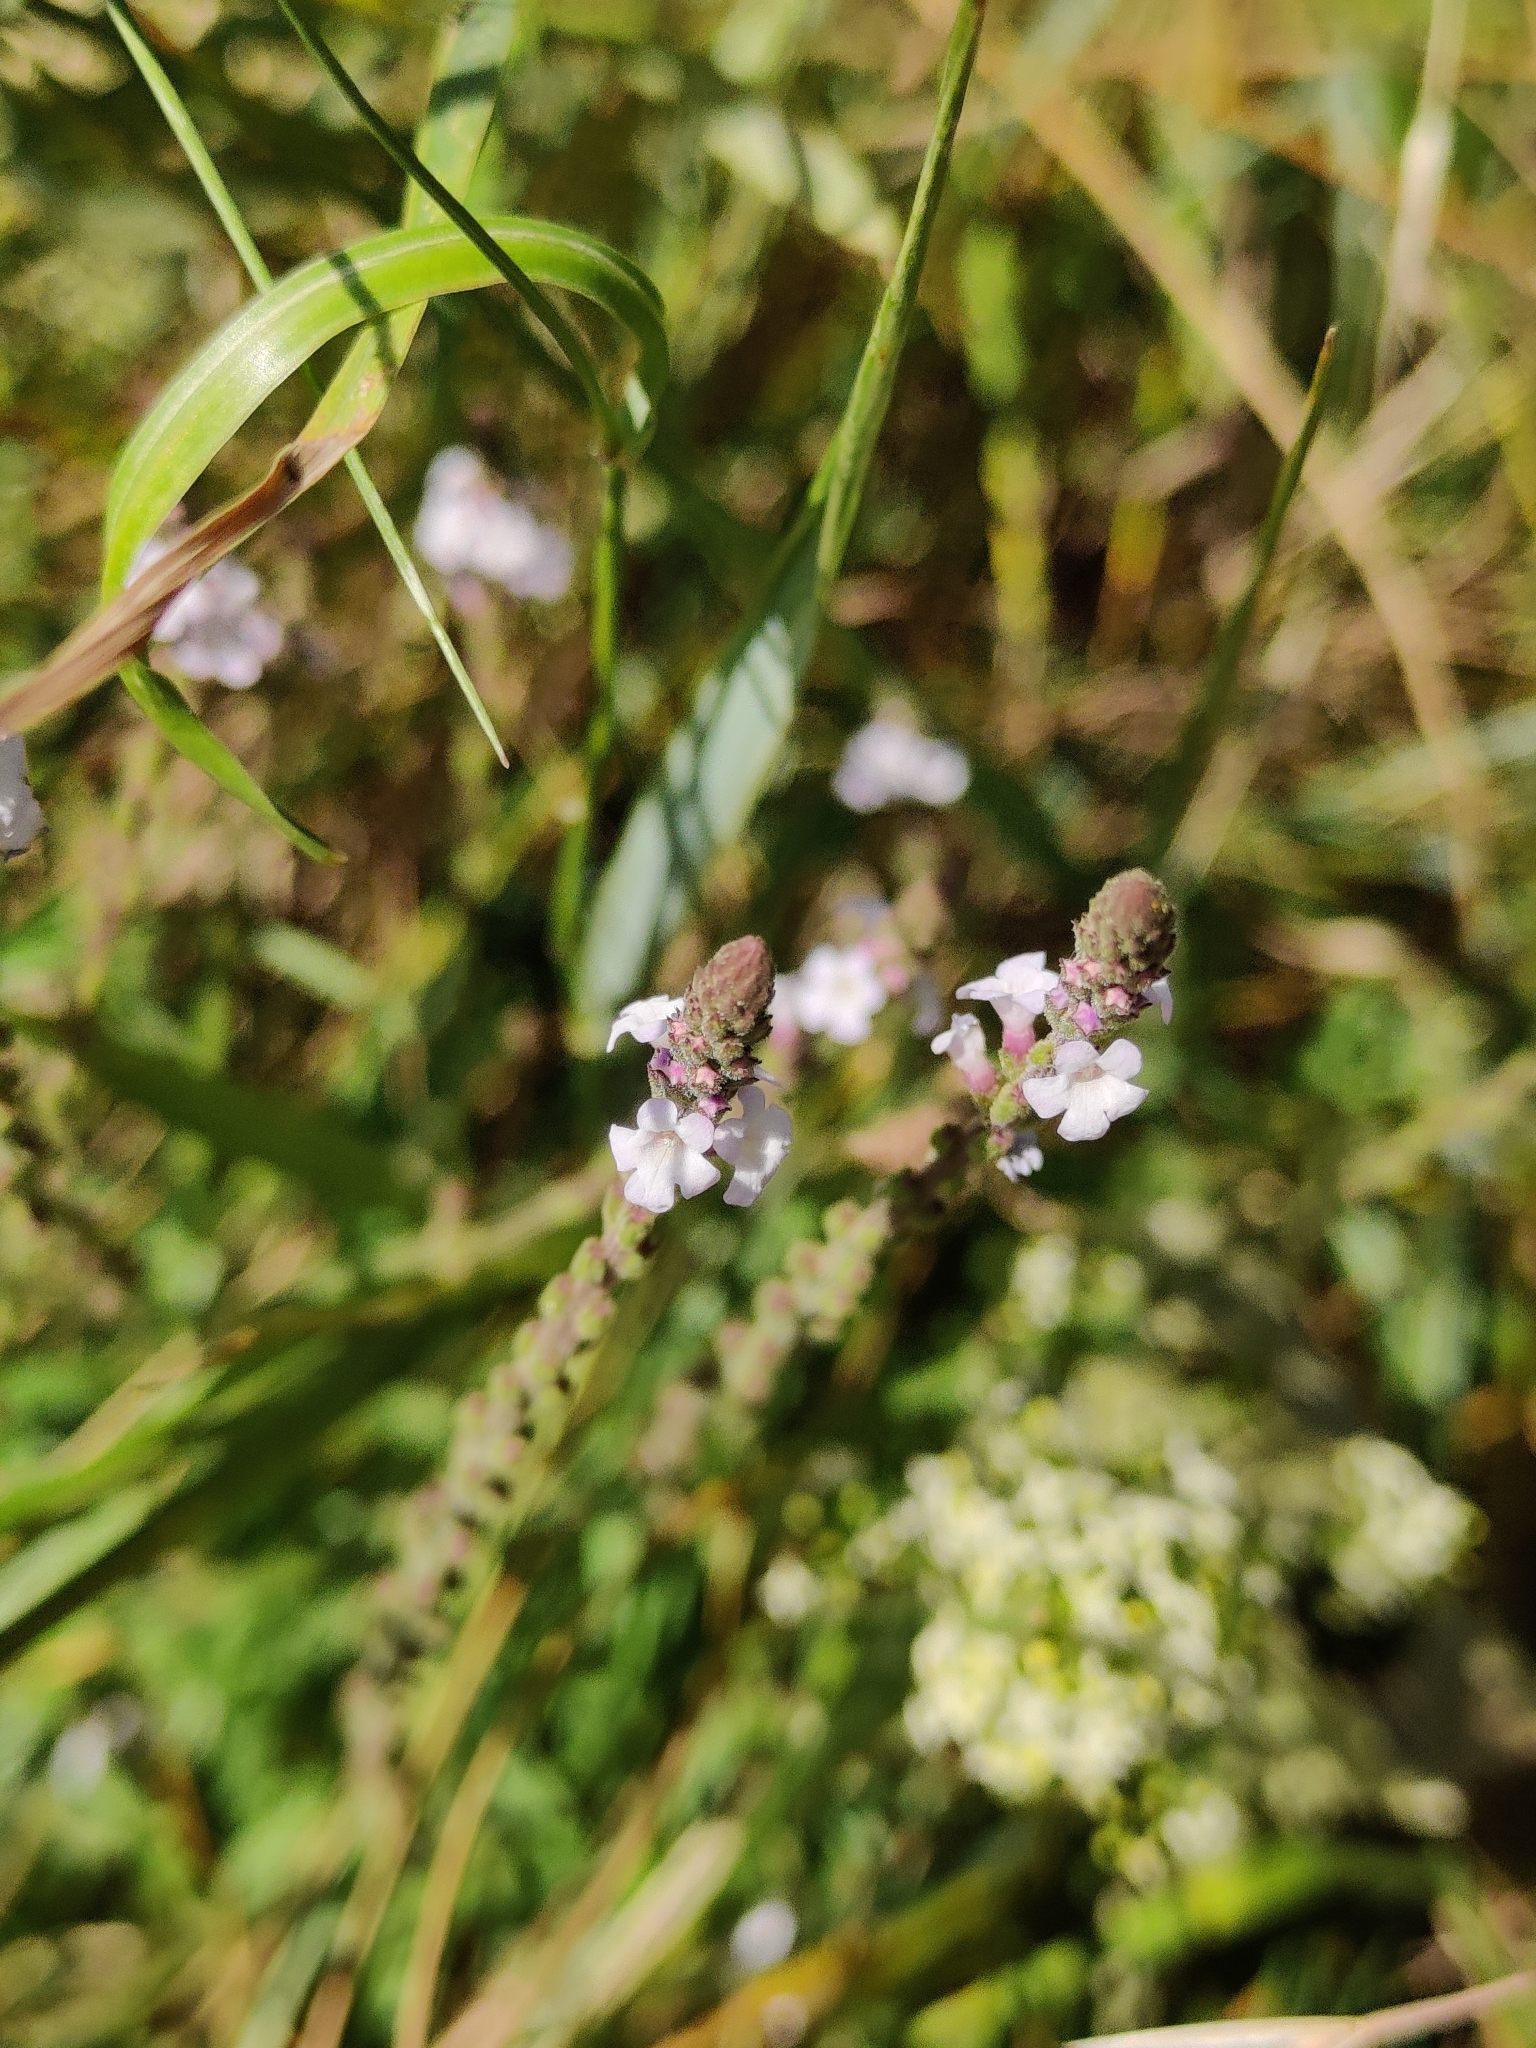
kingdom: Plantae
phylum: Tracheophyta
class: Magnoliopsida
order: Lamiales
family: Verbenaceae
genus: Verbena
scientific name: Verbena officinalis
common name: Vervain
